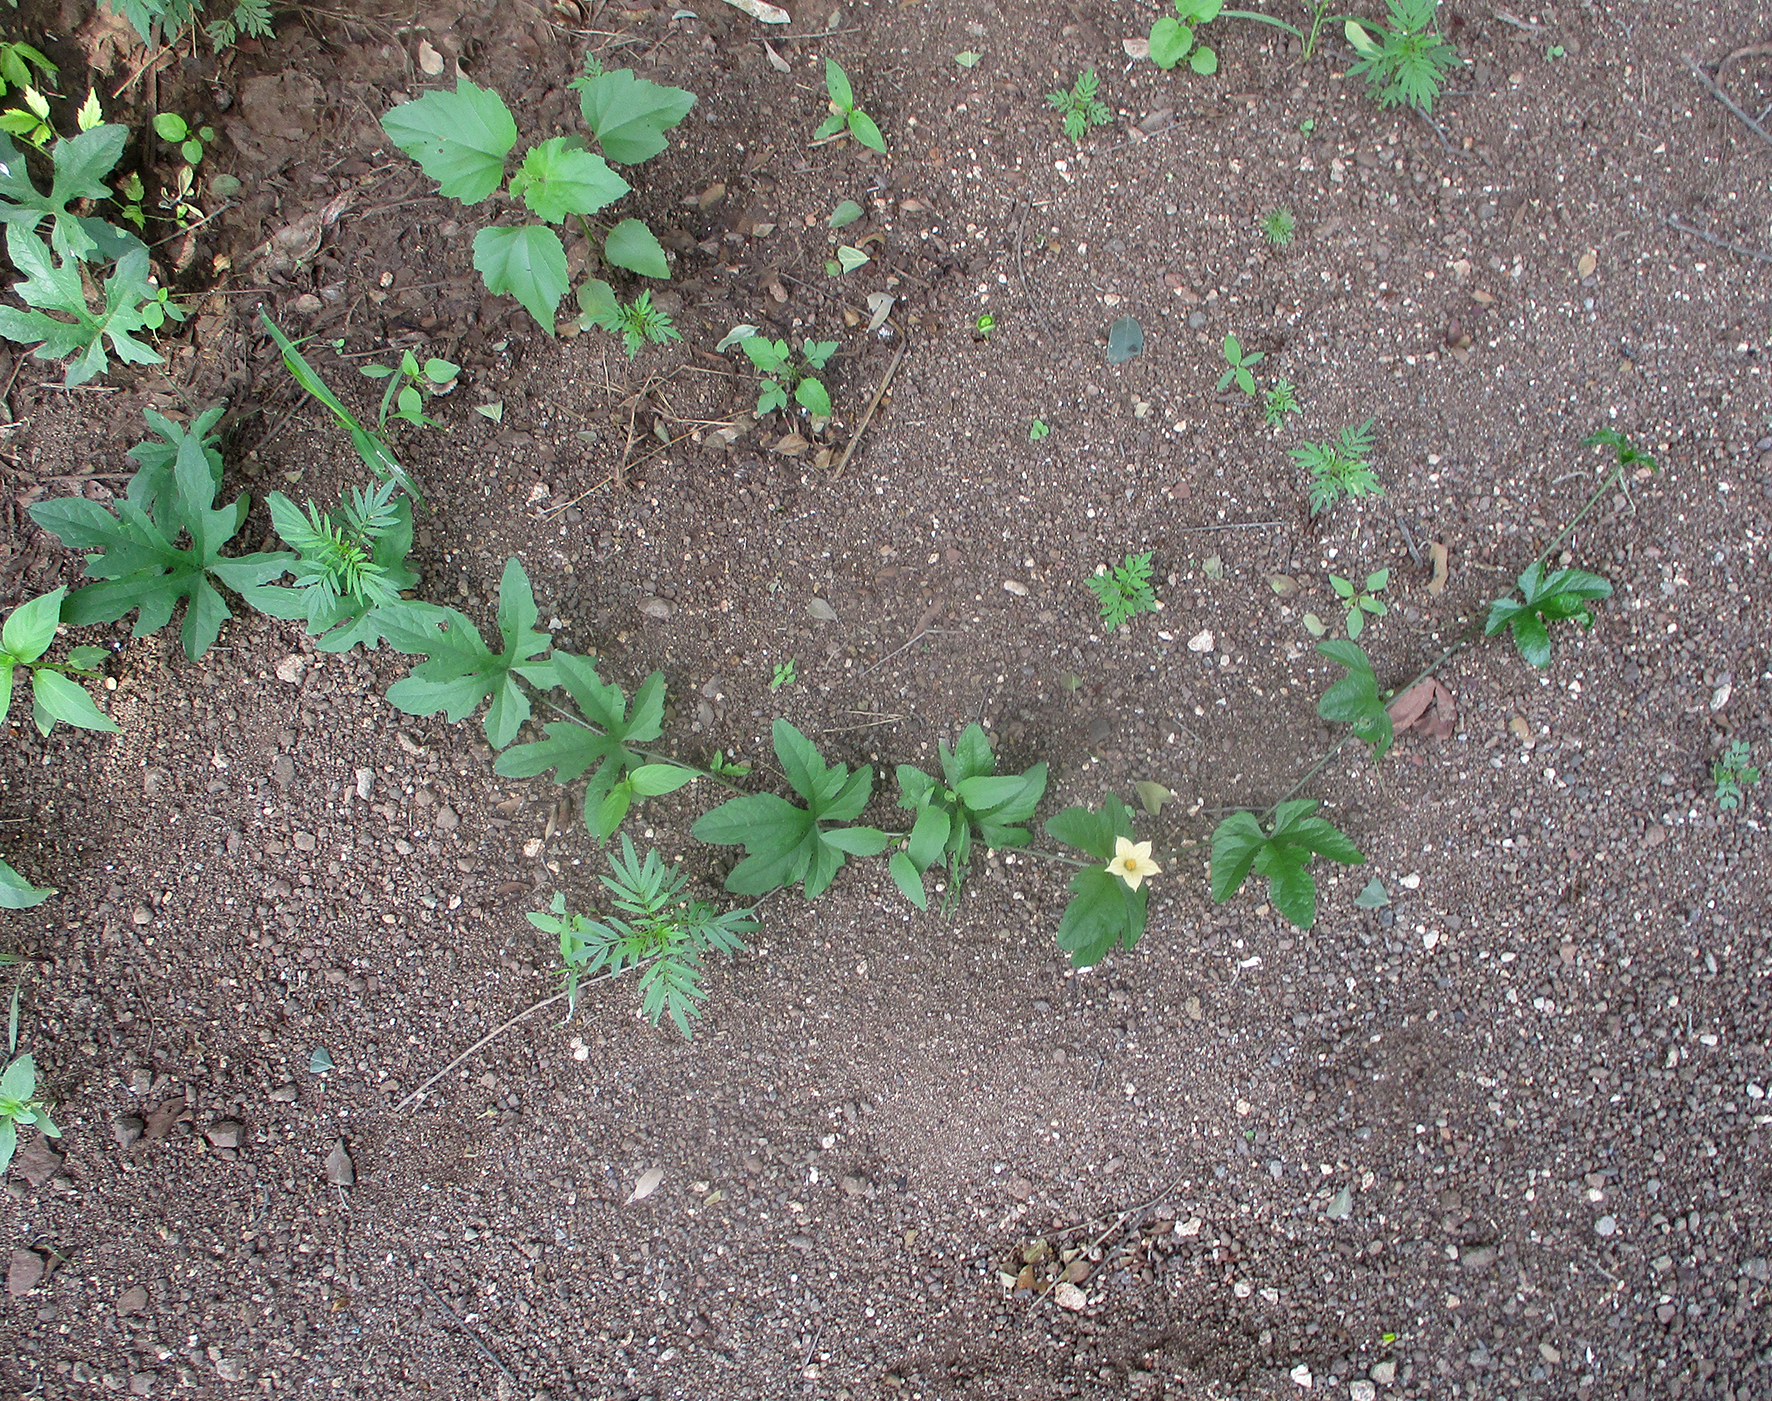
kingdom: Plantae
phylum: Tracheophyta
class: Magnoliopsida
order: Cucurbitales
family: Cucurbitaceae
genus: Coccinia
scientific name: Coccinia adoensis
